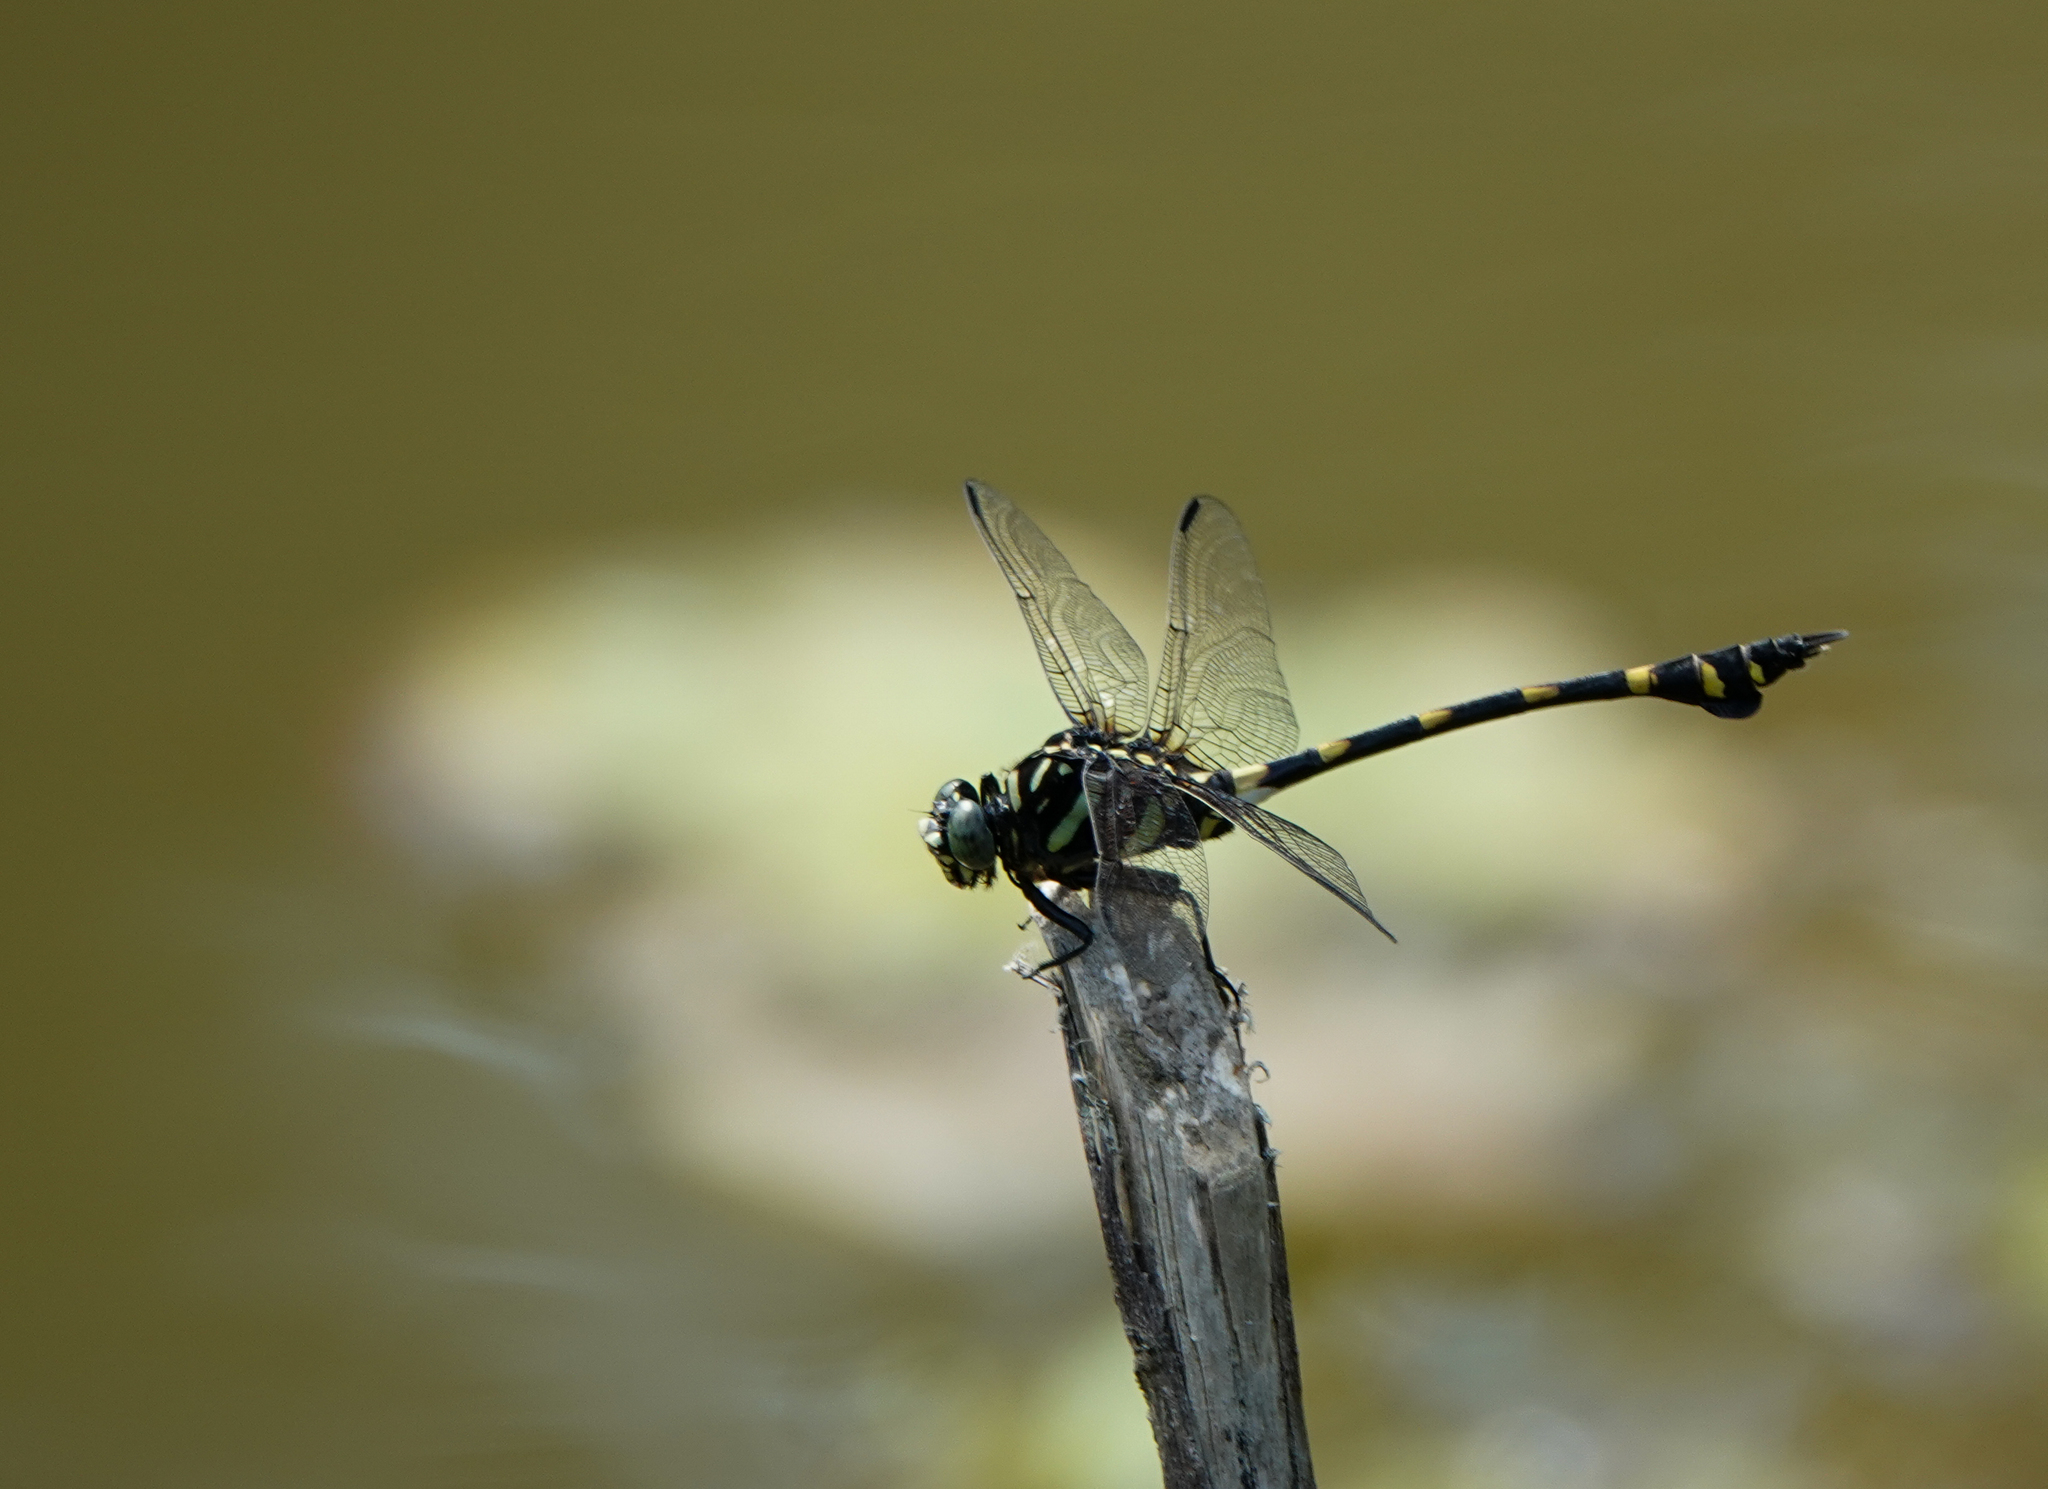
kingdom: Animalia
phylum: Arthropoda
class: Insecta
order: Odonata
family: Gomphidae
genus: Ictinogomphus
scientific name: Ictinogomphus rapax
